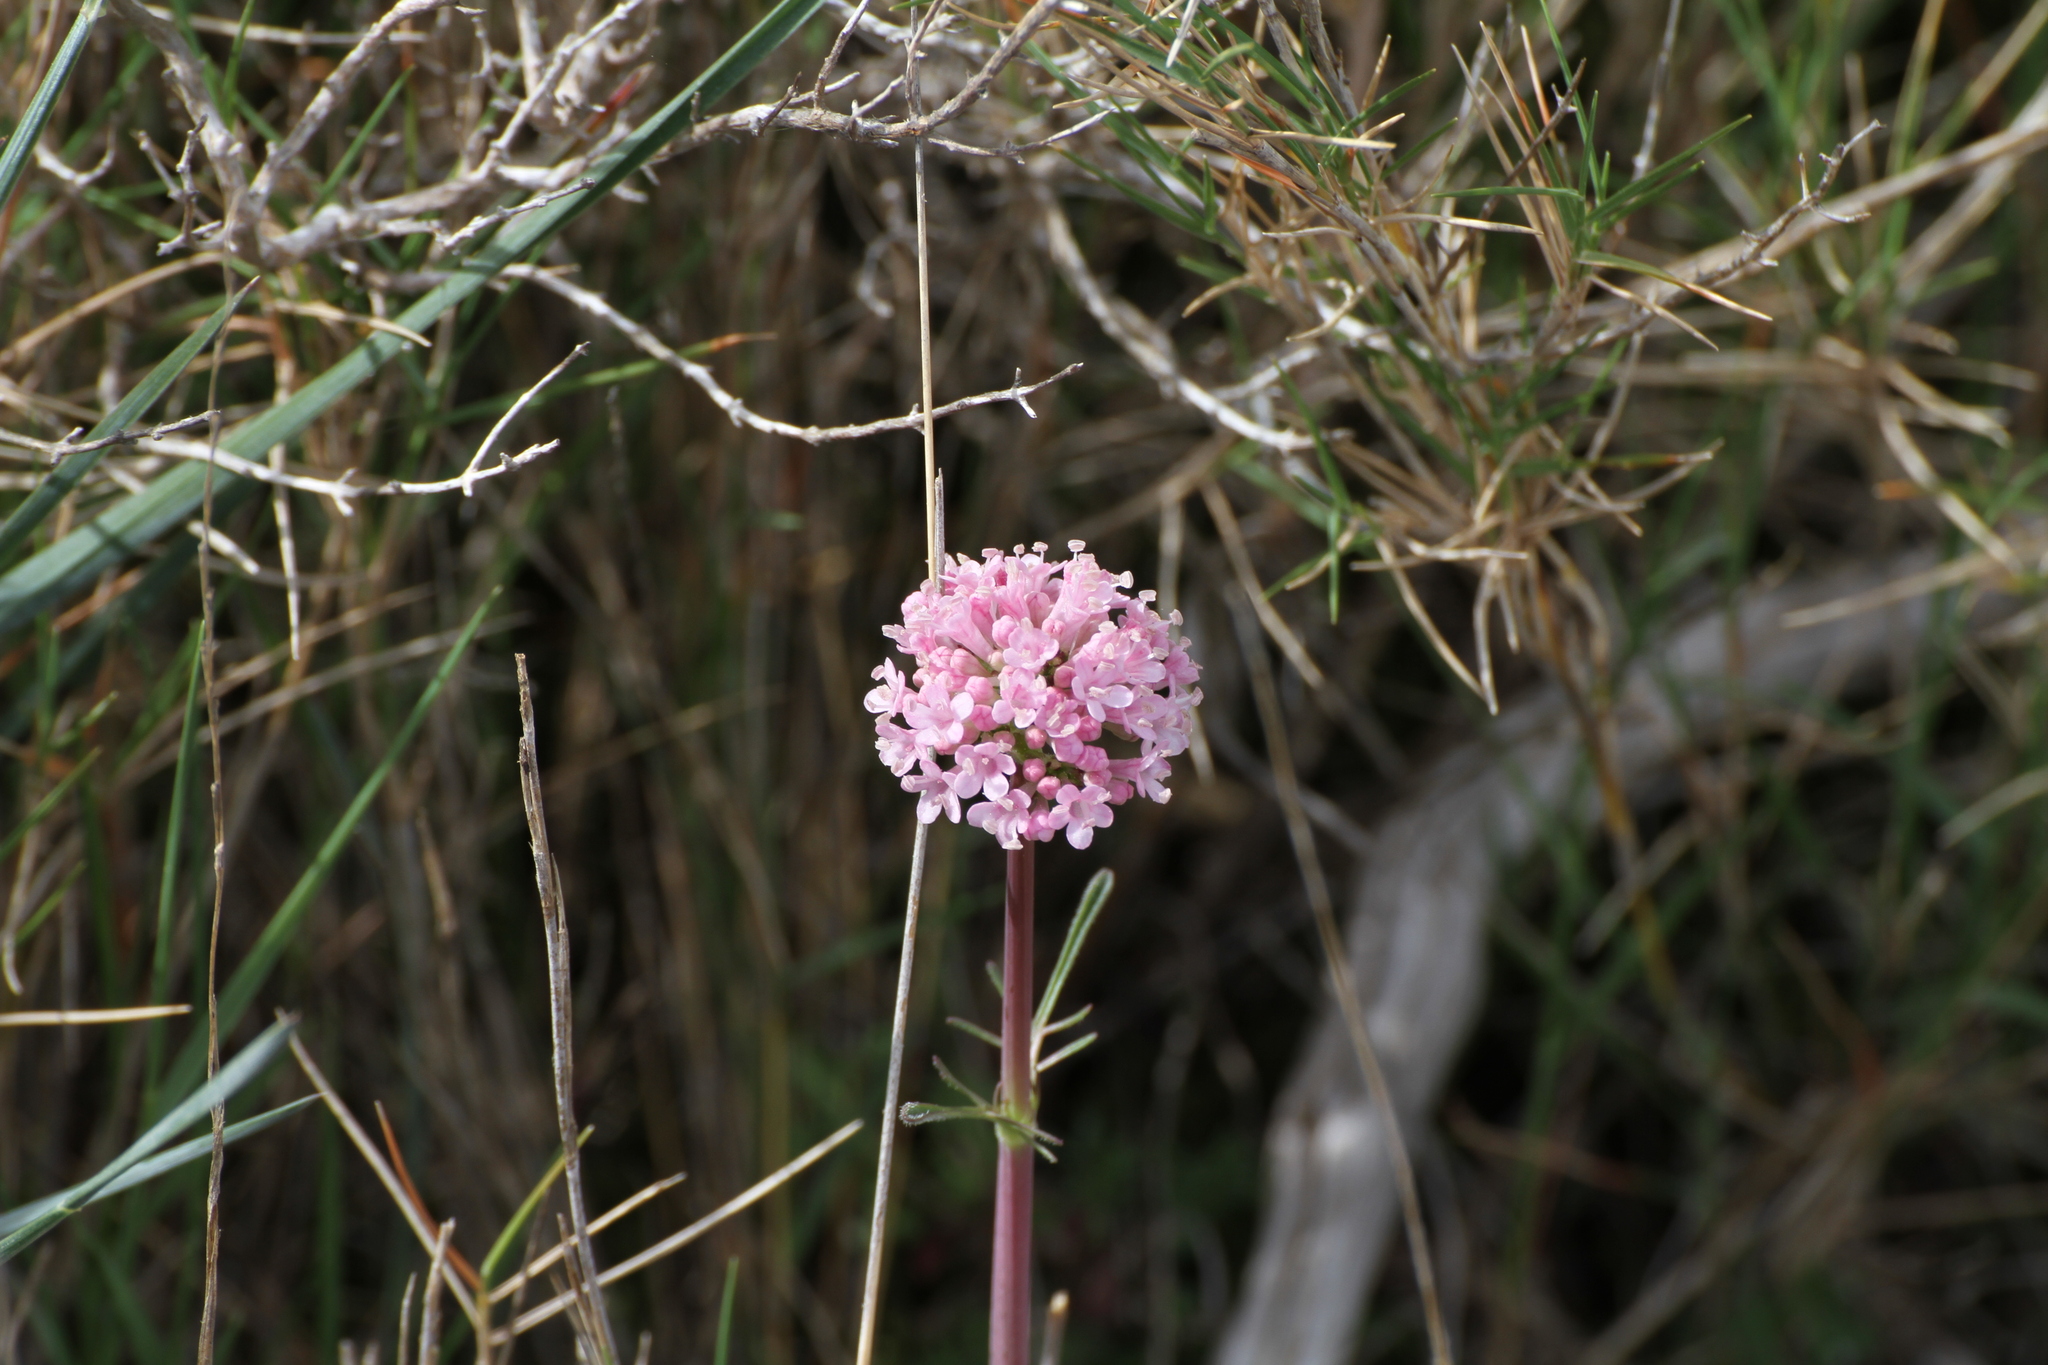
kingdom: Plantae
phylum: Tracheophyta
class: Magnoliopsida
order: Dipsacales
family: Caprifoliaceae
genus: Valeriana
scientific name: Valeriana tuberosa
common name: Tuberous valerian
